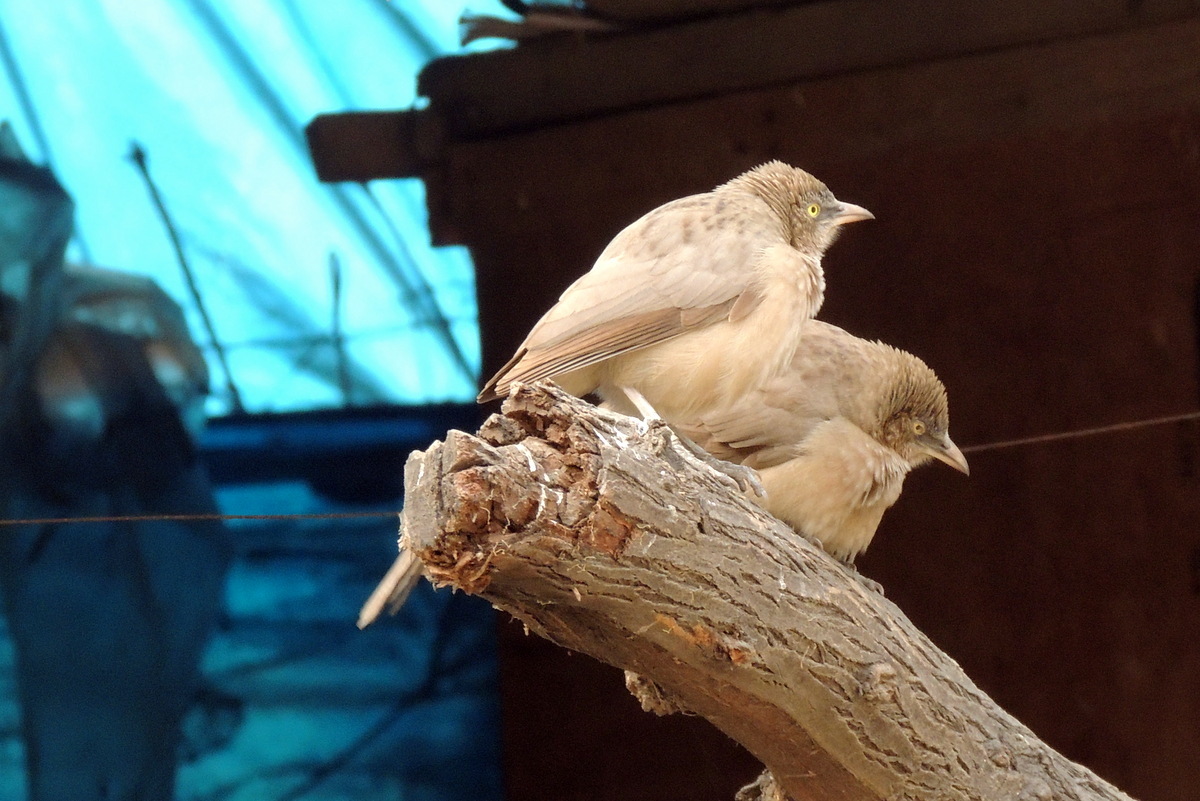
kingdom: Animalia
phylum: Chordata
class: Aves
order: Passeriformes
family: Leiothrichidae
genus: Turdoides
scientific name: Turdoides earlei
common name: Striated babbler
